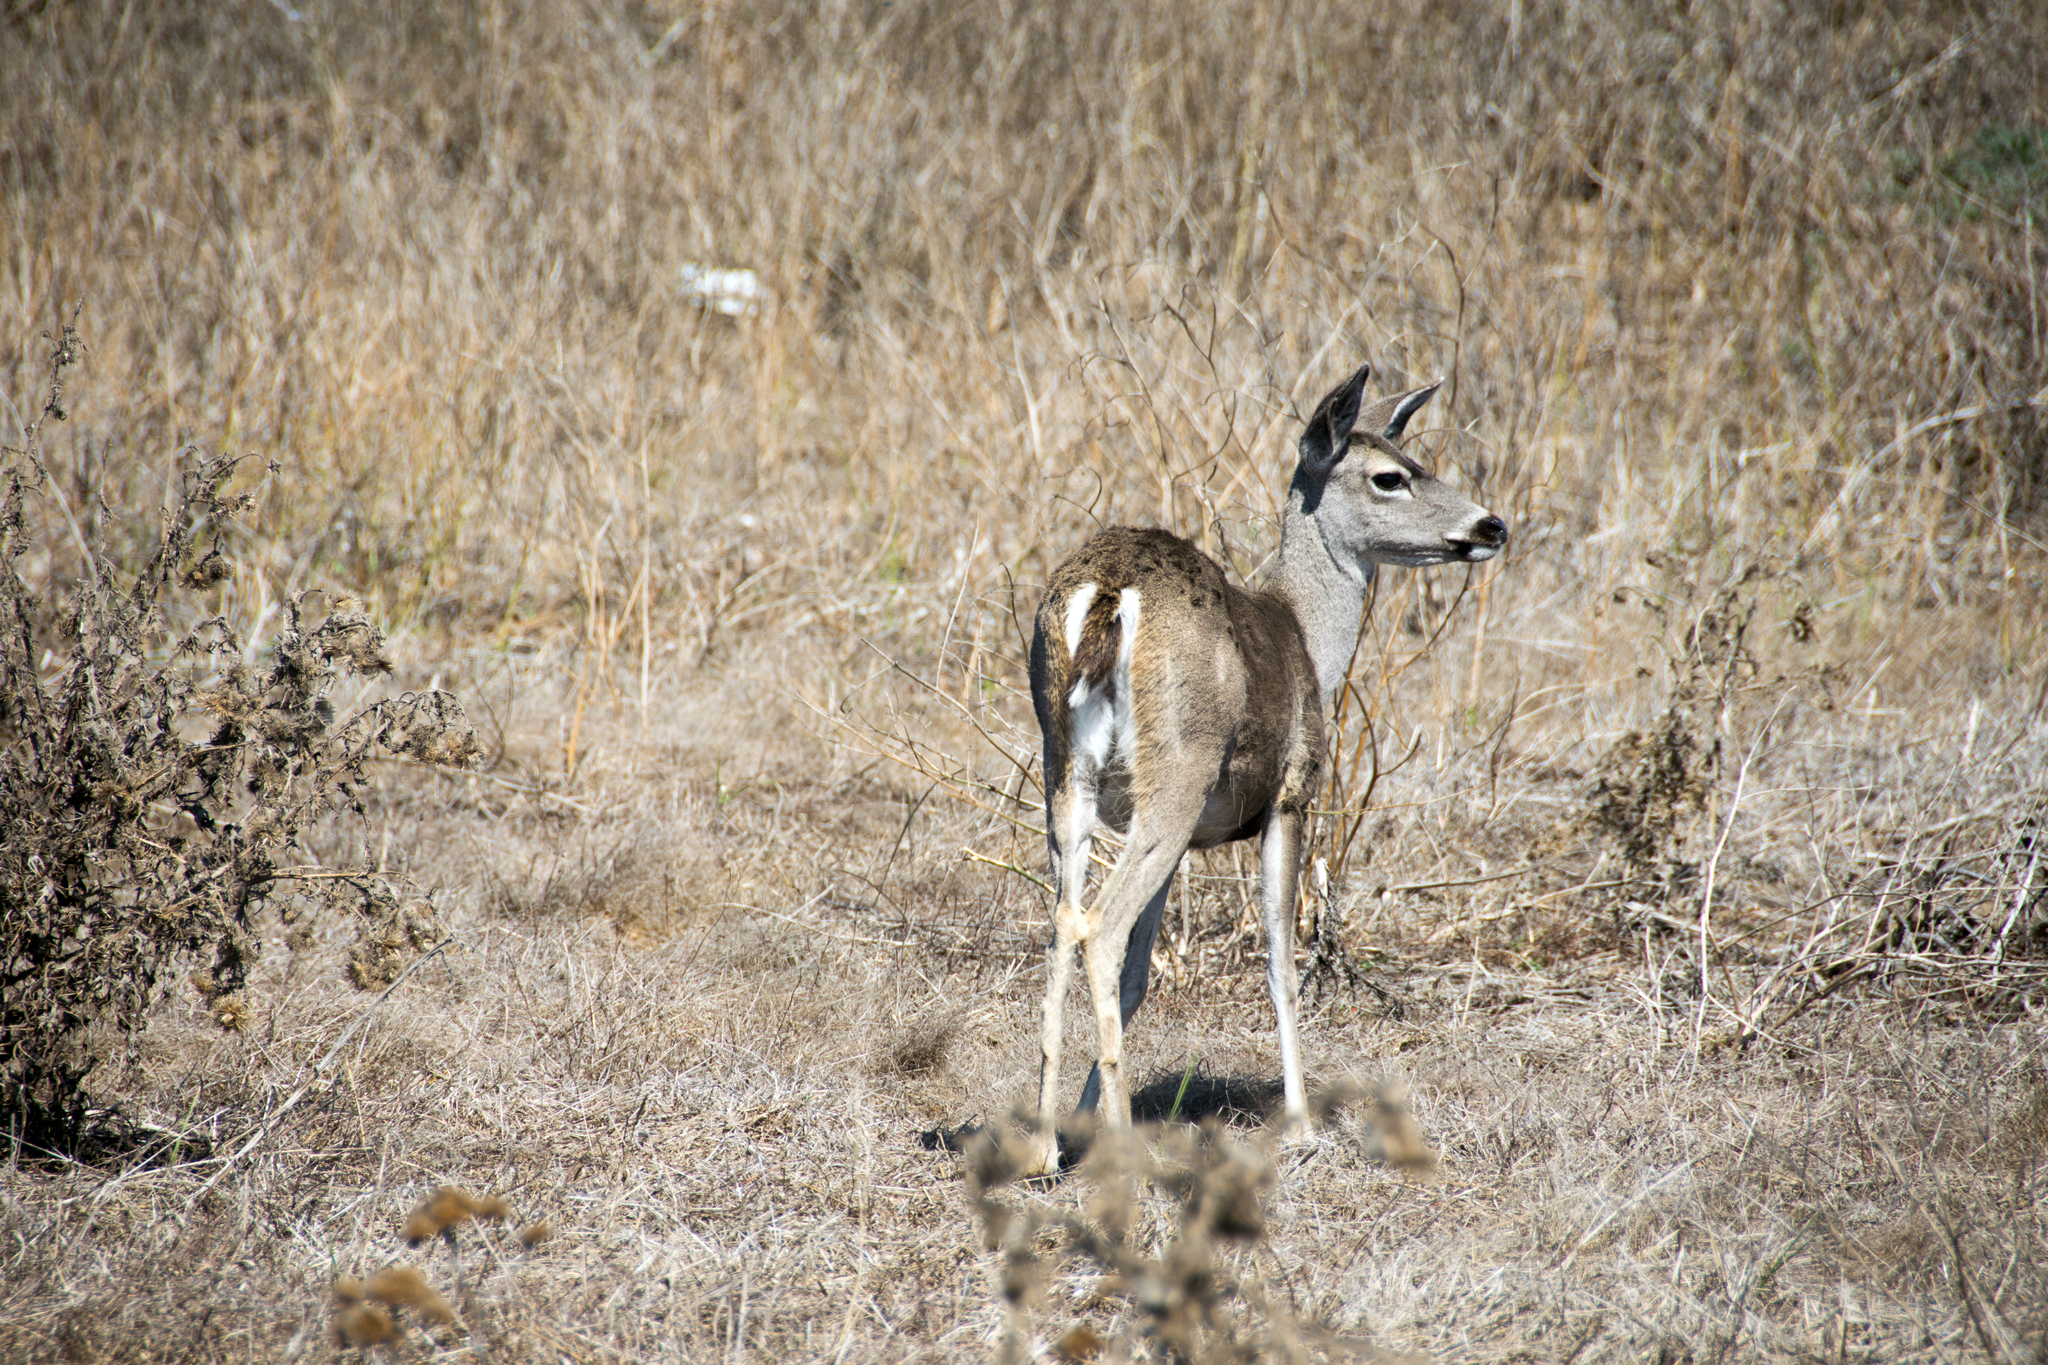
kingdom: Animalia
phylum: Chordata
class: Mammalia
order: Artiodactyla
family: Cervidae
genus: Odocoileus
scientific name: Odocoileus hemionus
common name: Mule deer
